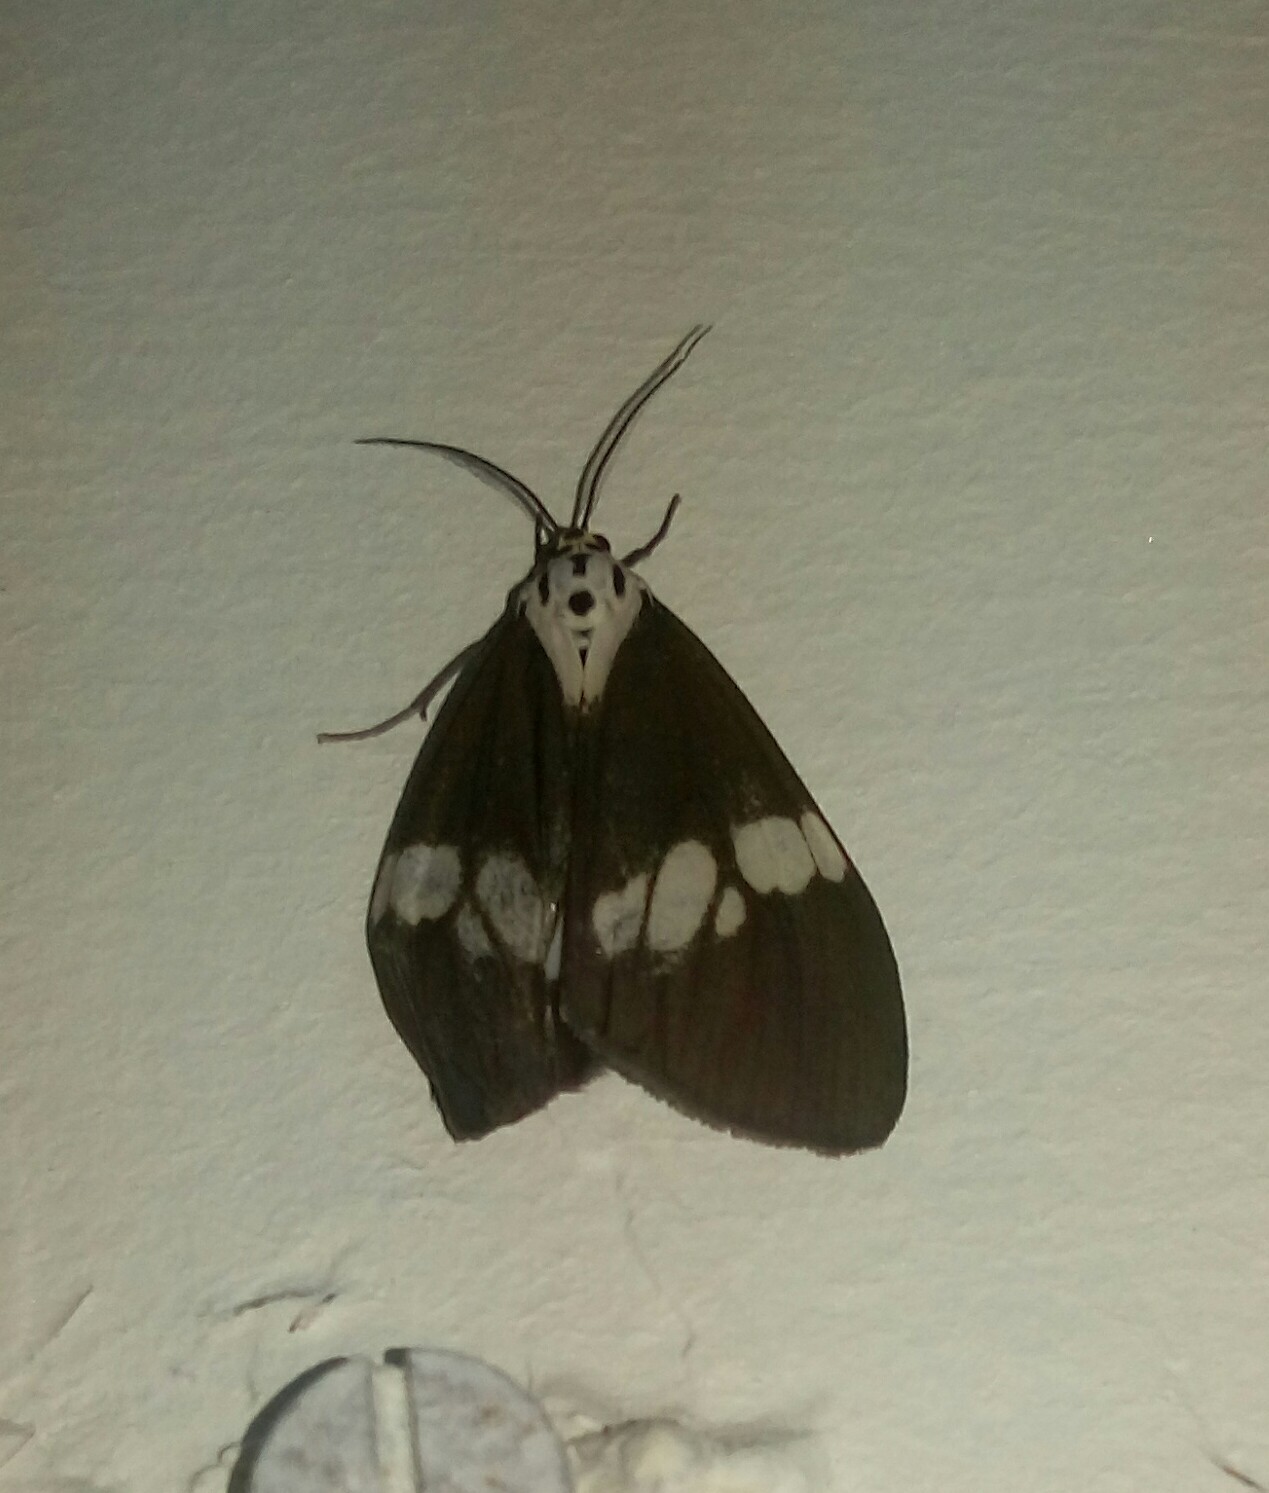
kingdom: Animalia
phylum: Arthropoda
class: Insecta
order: Lepidoptera
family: Erebidae
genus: Nyctemera
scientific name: Nyctemera lacticinia
